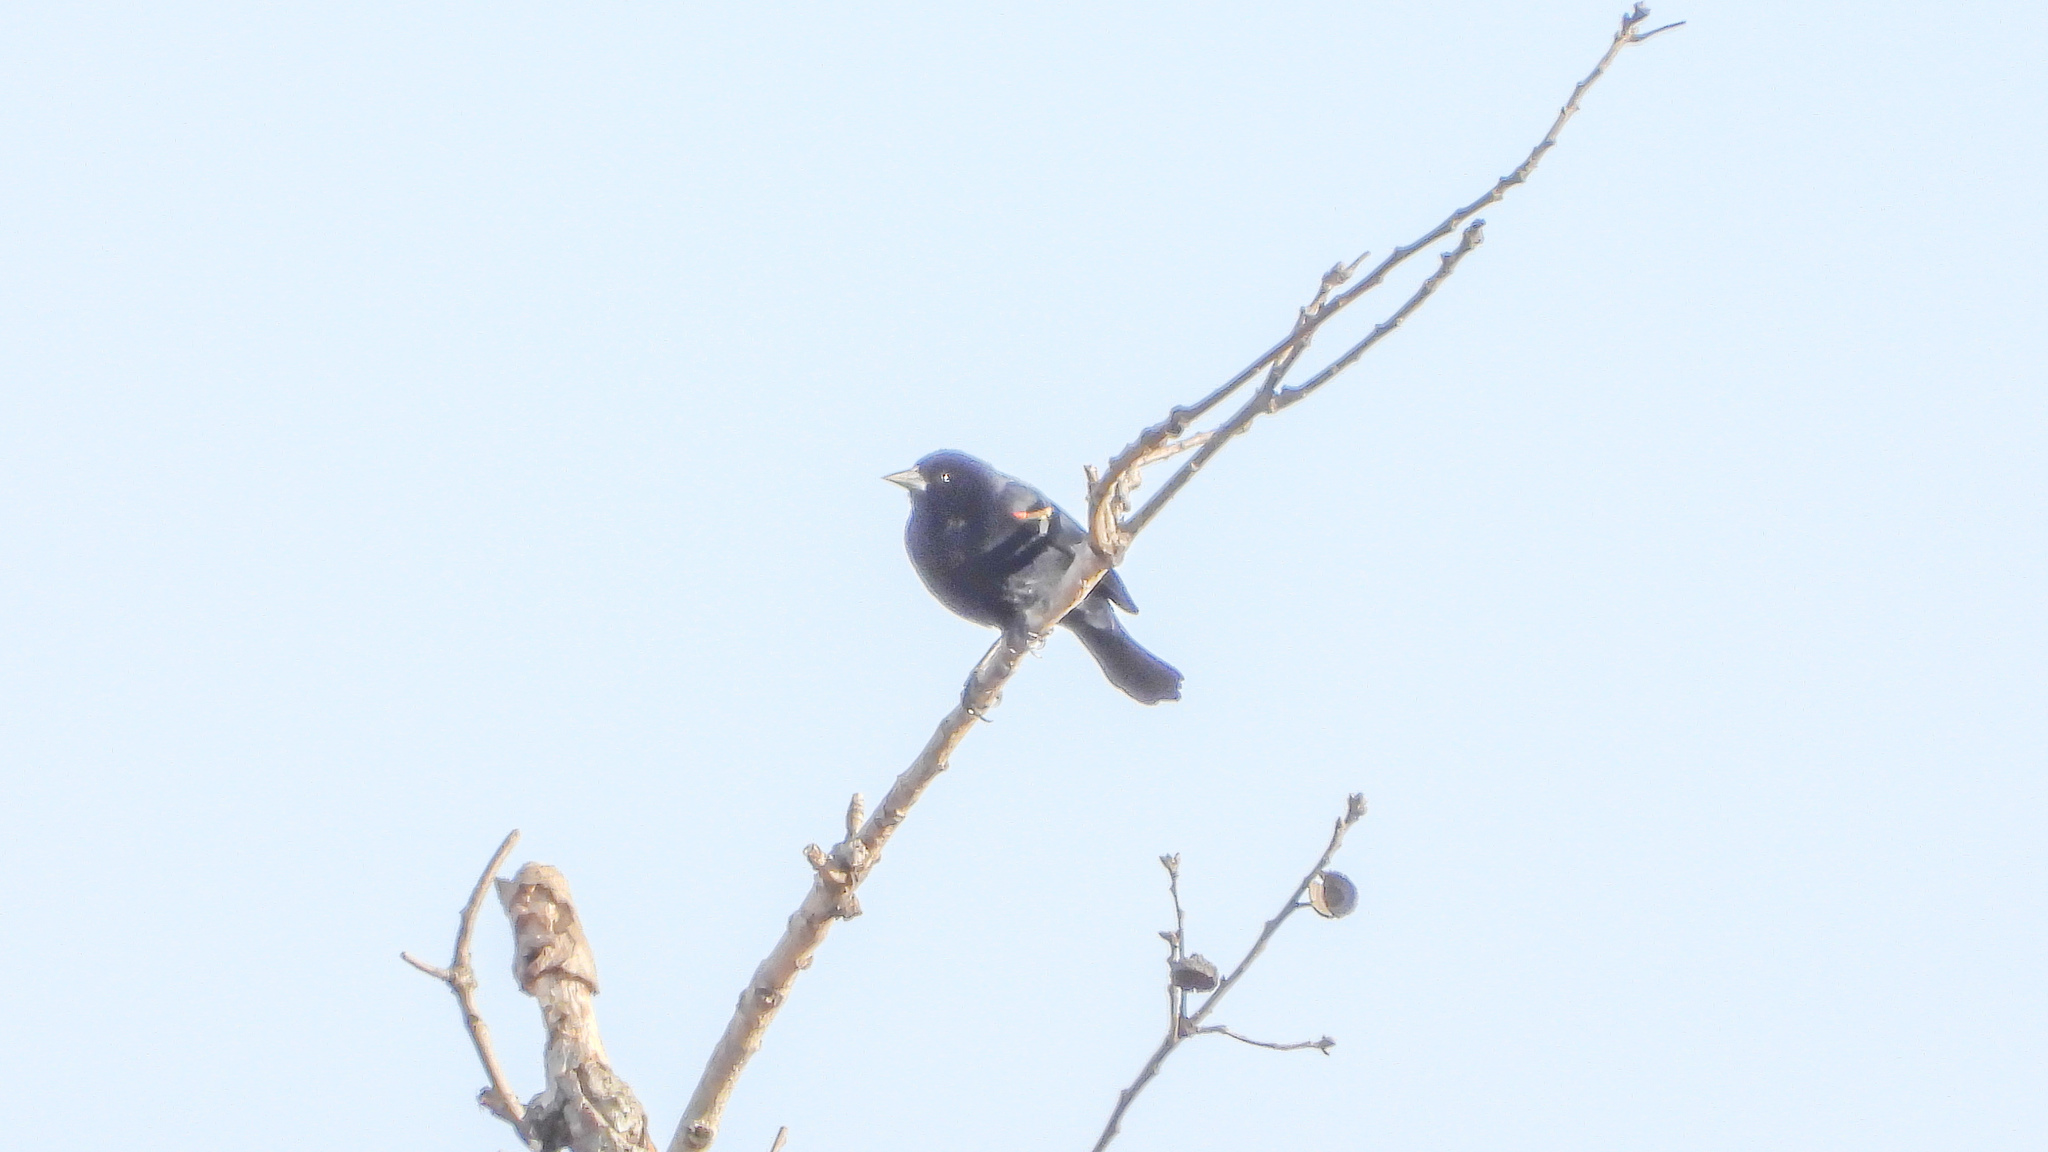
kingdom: Animalia
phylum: Chordata
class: Aves
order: Passeriformes
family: Icteridae
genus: Agelaius
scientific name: Agelaius phoeniceus
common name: Red-winged blackbird
